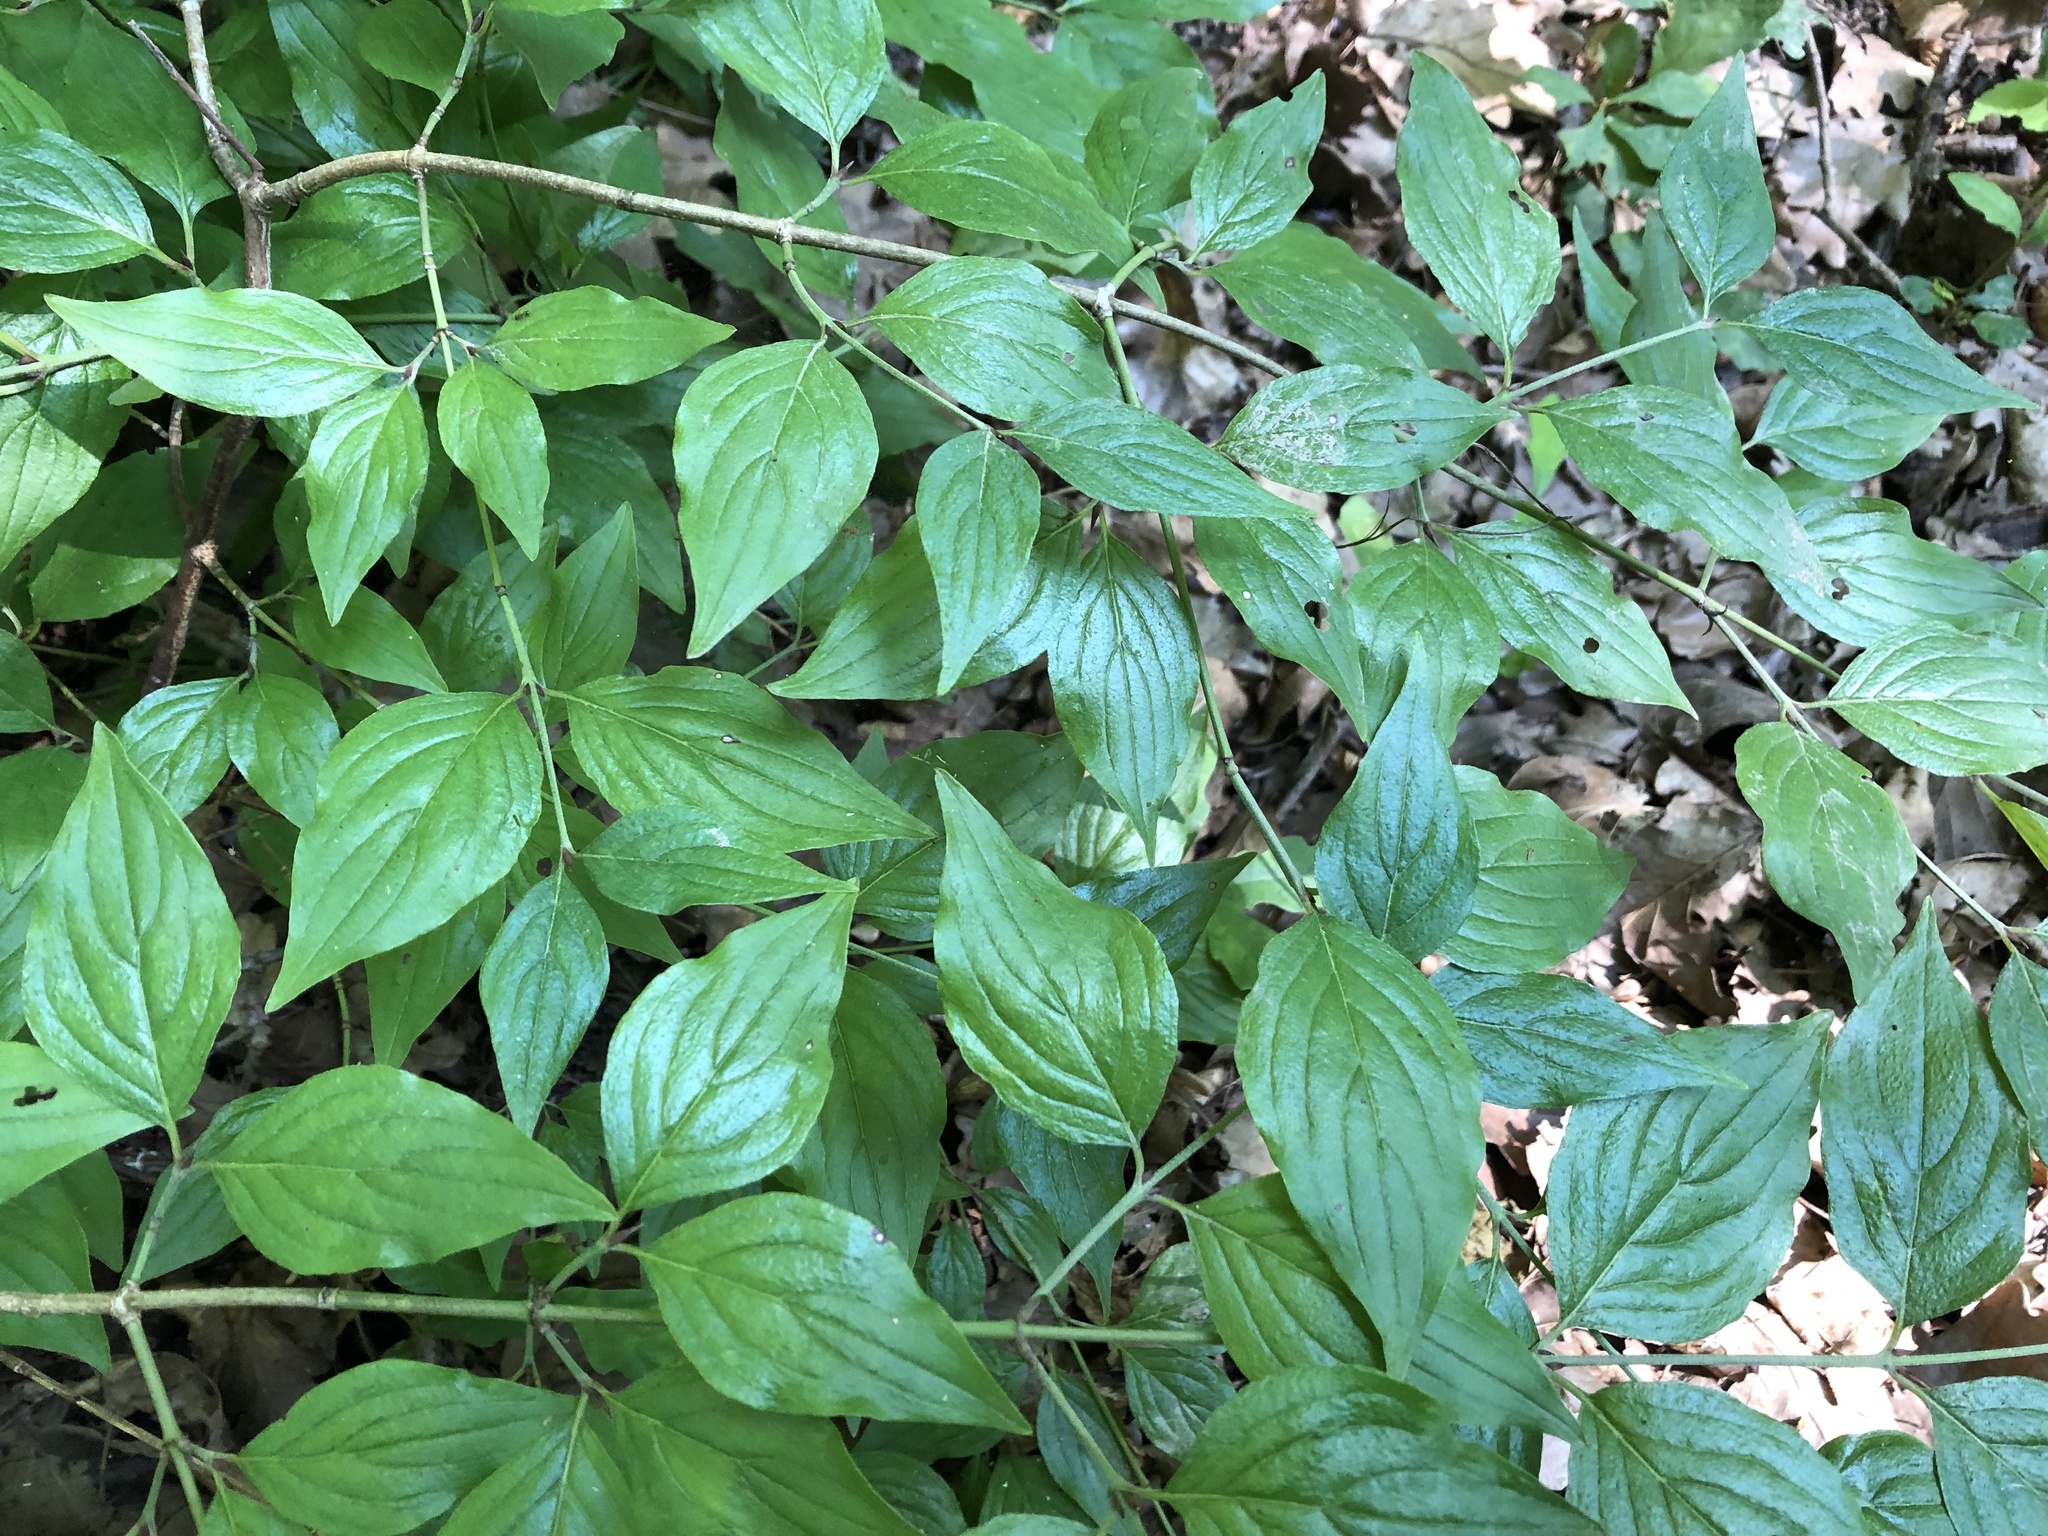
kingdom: Plantae
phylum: Tracheophyta
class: Magnoliopsida
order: Cornales
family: Cornaceae
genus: Cornus
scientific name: Cornus mas
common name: Cornelian-cherry
